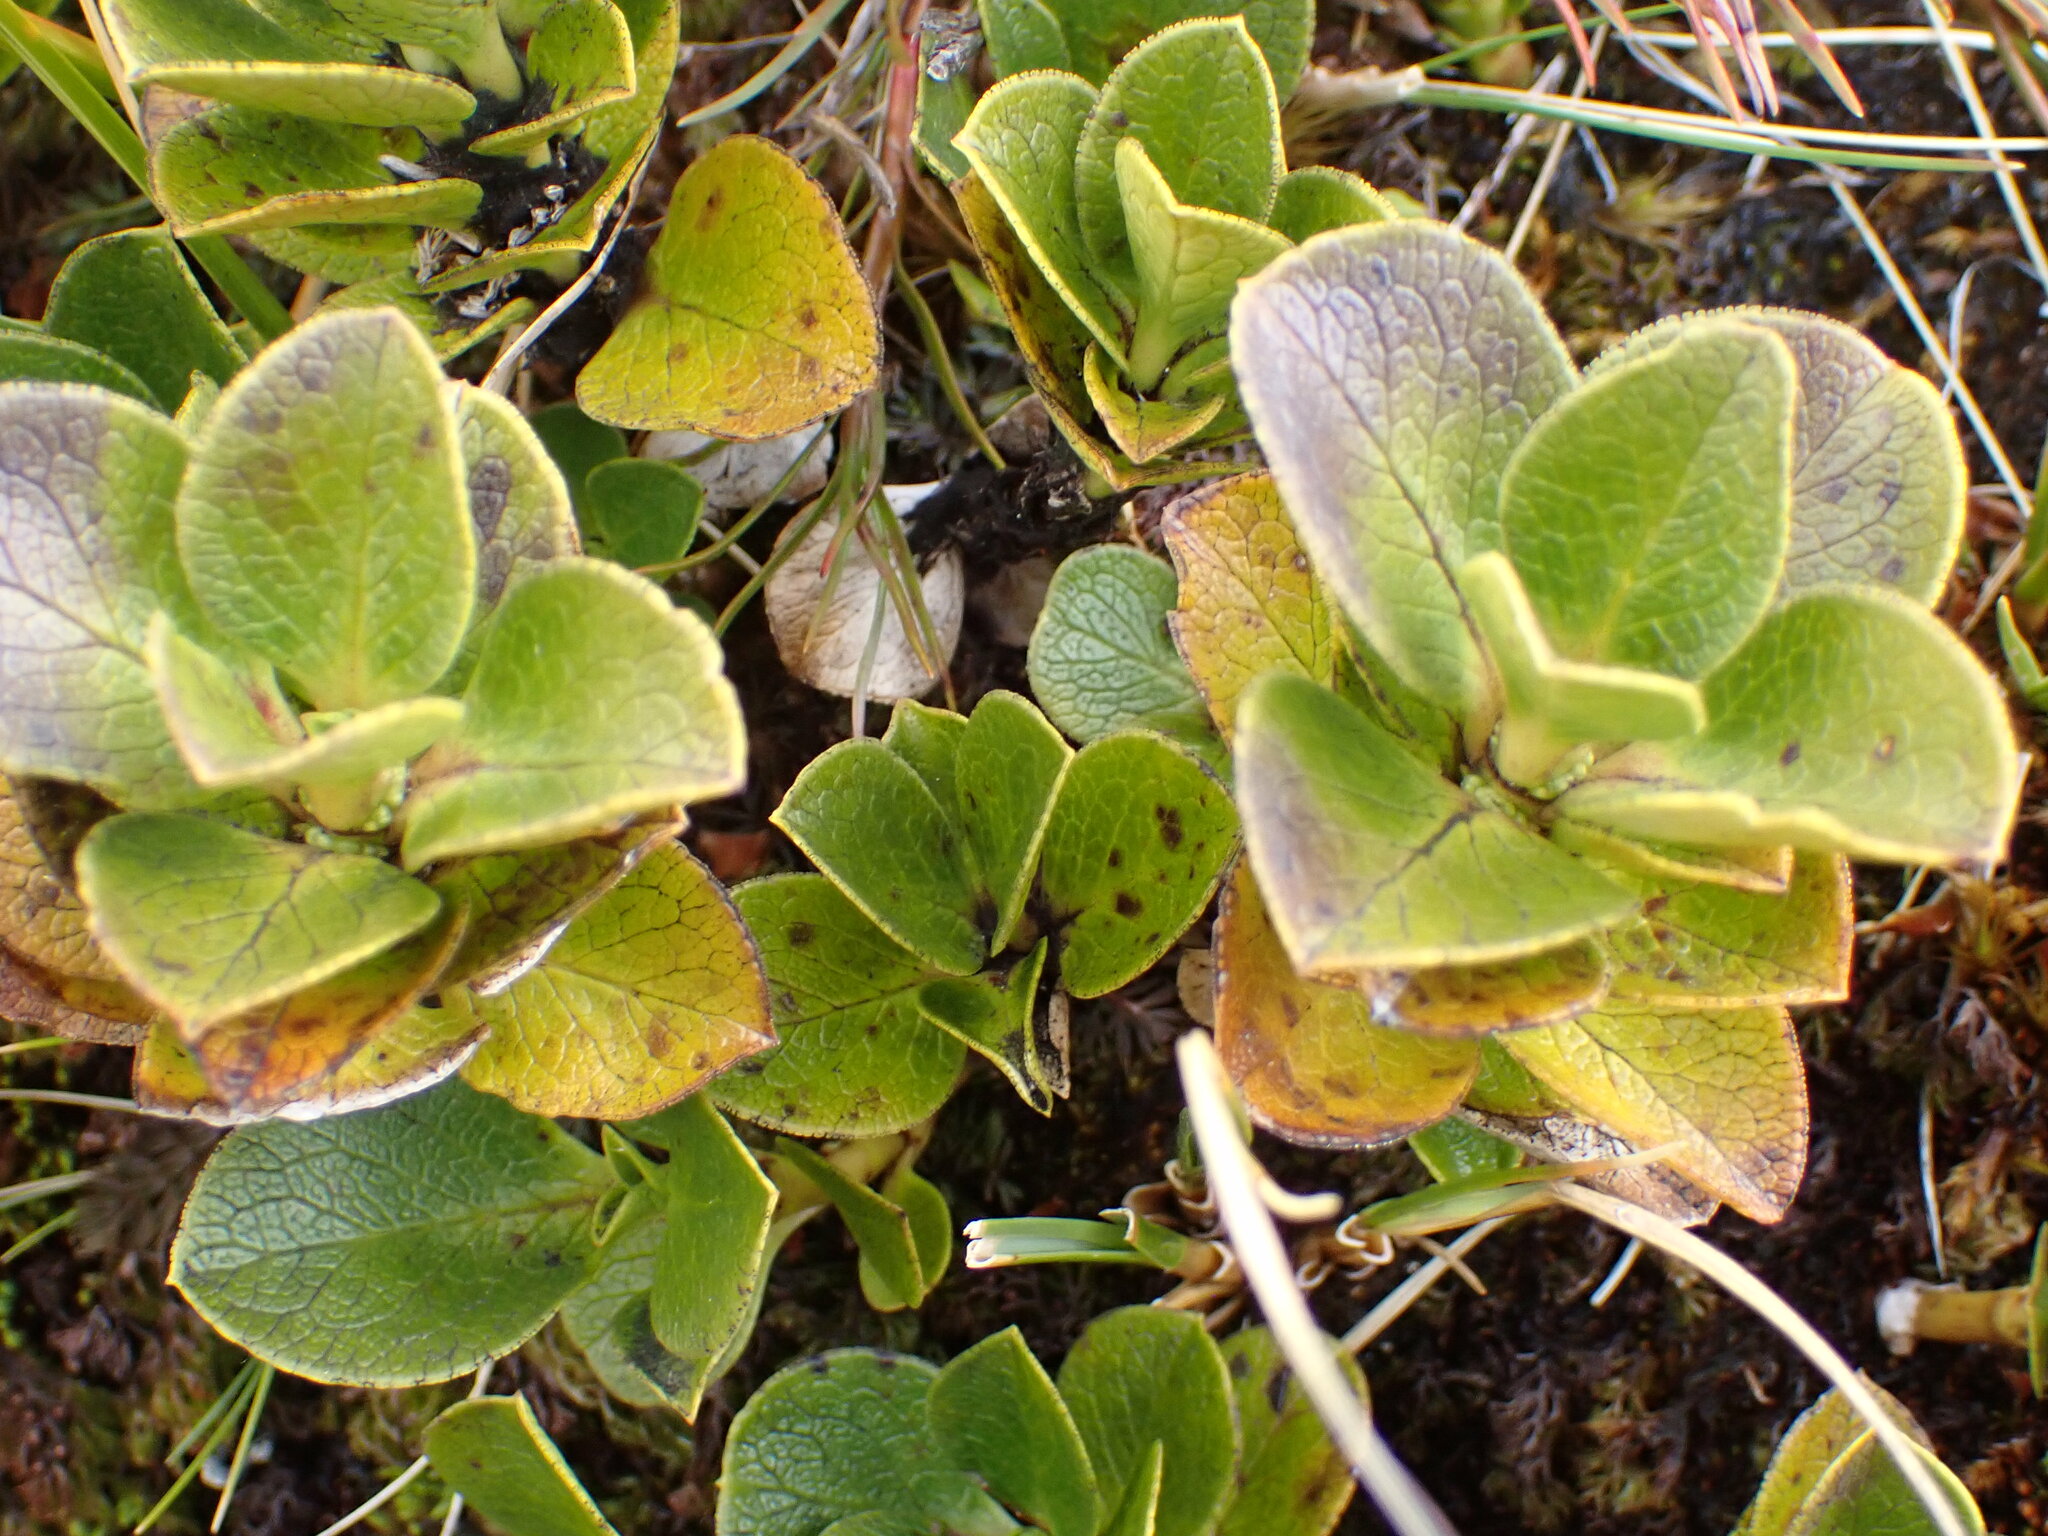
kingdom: Plantae
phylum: Tracheophyta
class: Magnoliopsida
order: Gentianales
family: Rubiaceae
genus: Coprosma
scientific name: Coprosma serrulata
